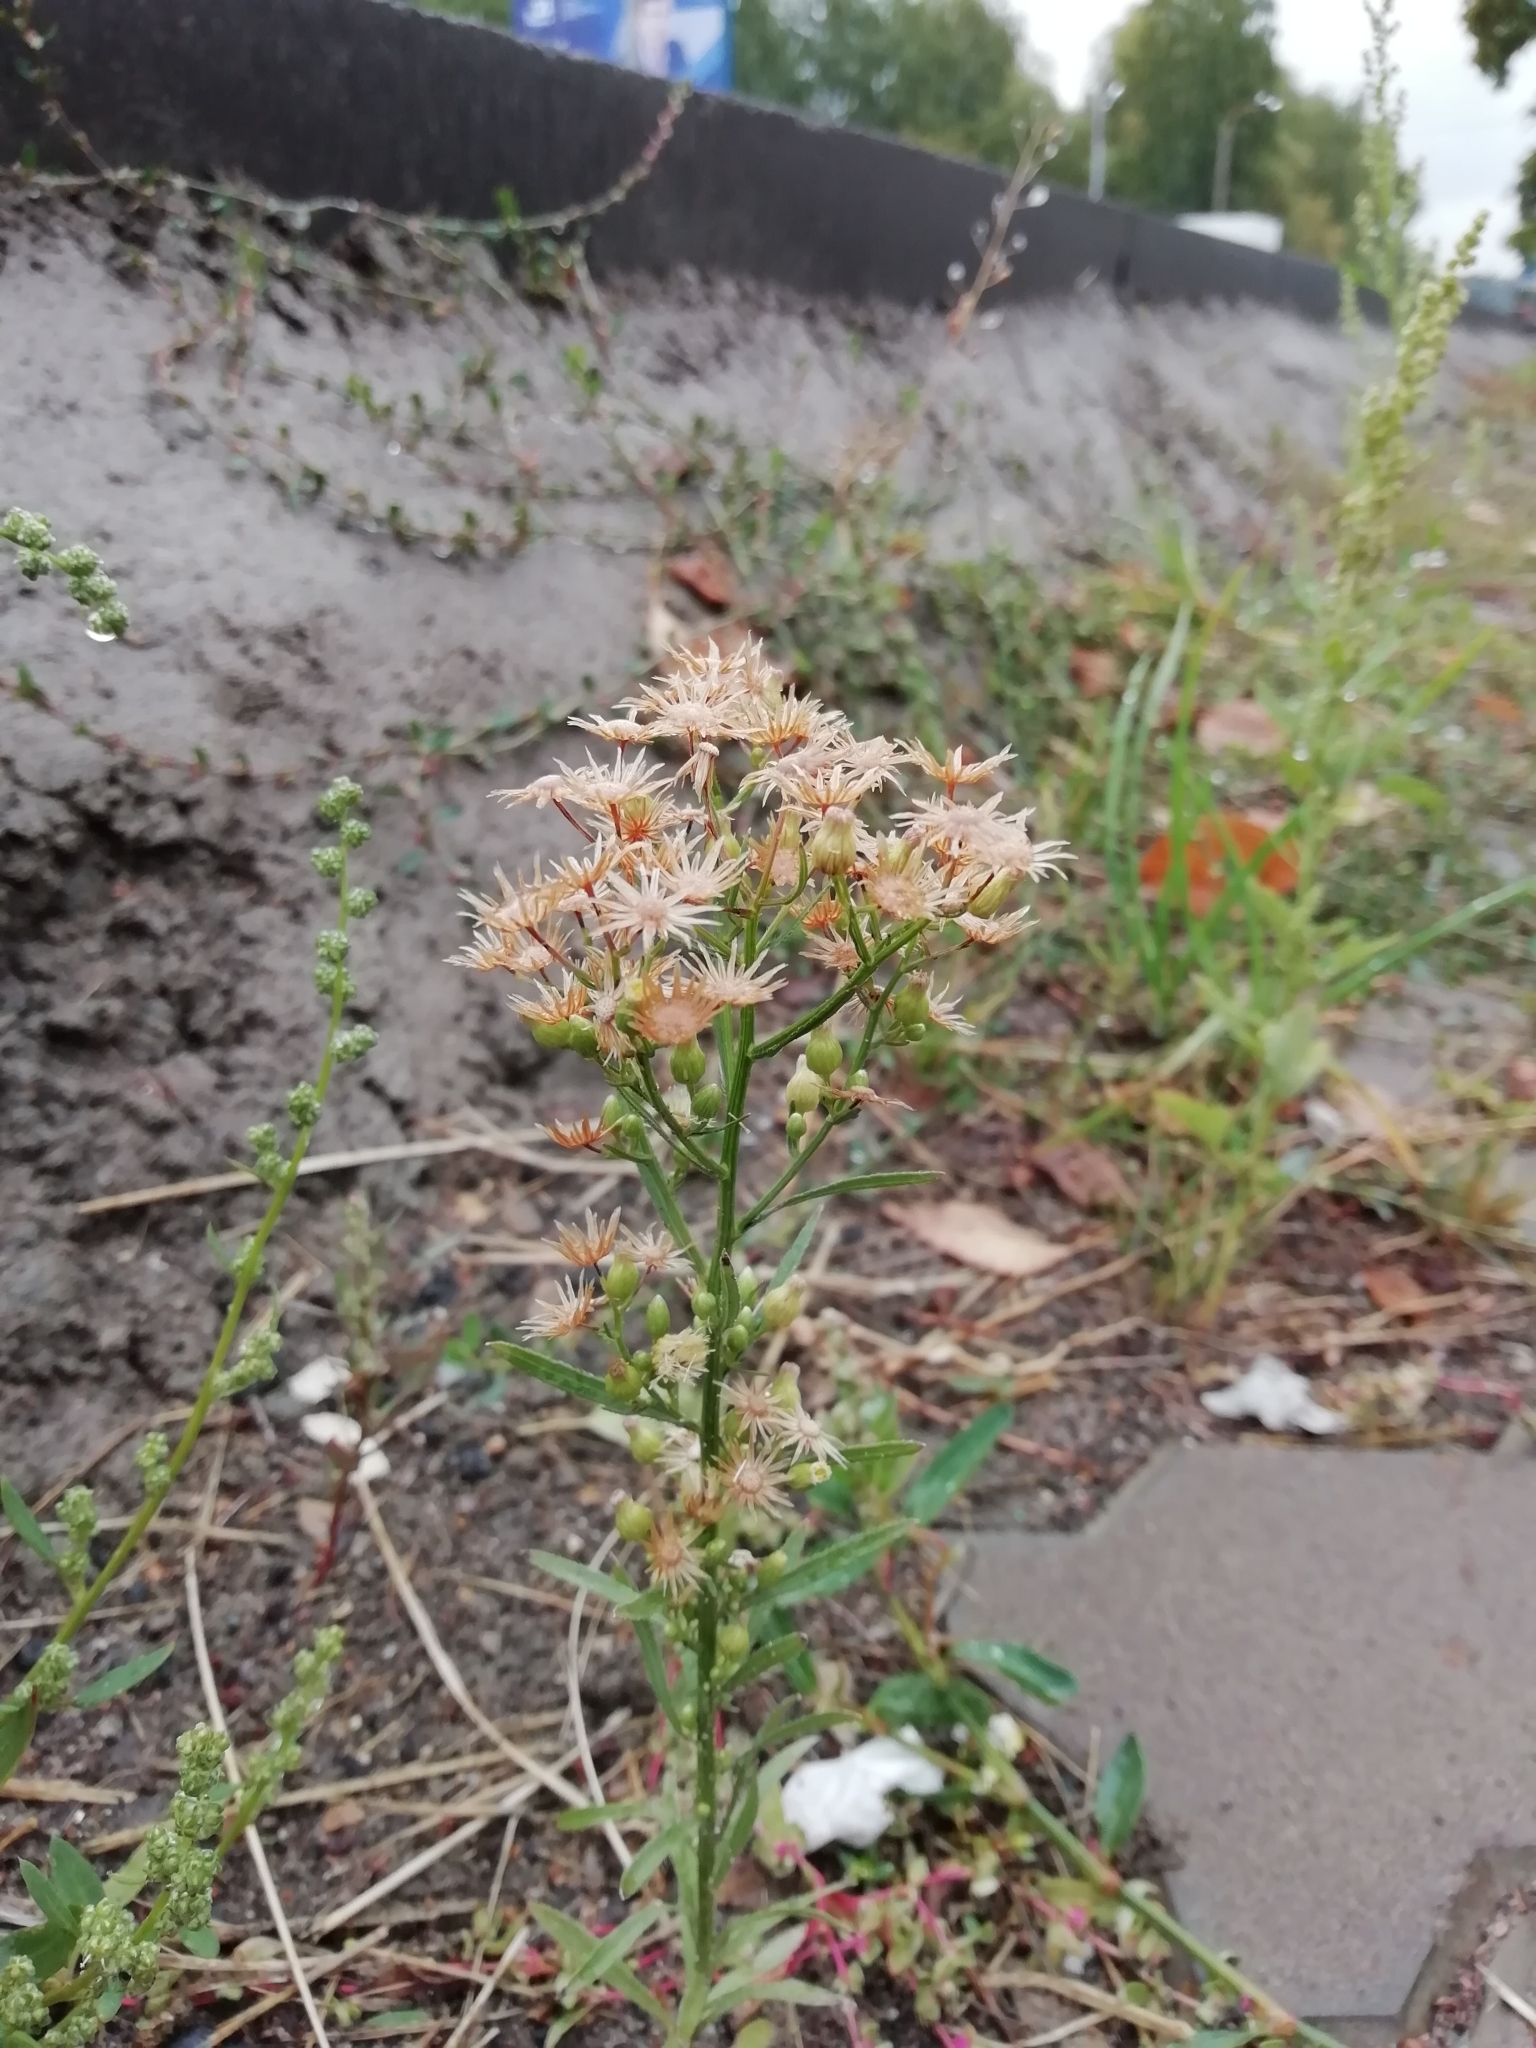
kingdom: Plantae
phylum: Tracheophyta
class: Magnoliopsida
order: Asterales
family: Asteraceae
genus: Erigeron
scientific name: Erigeron canadensis
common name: Canadian fleabane
